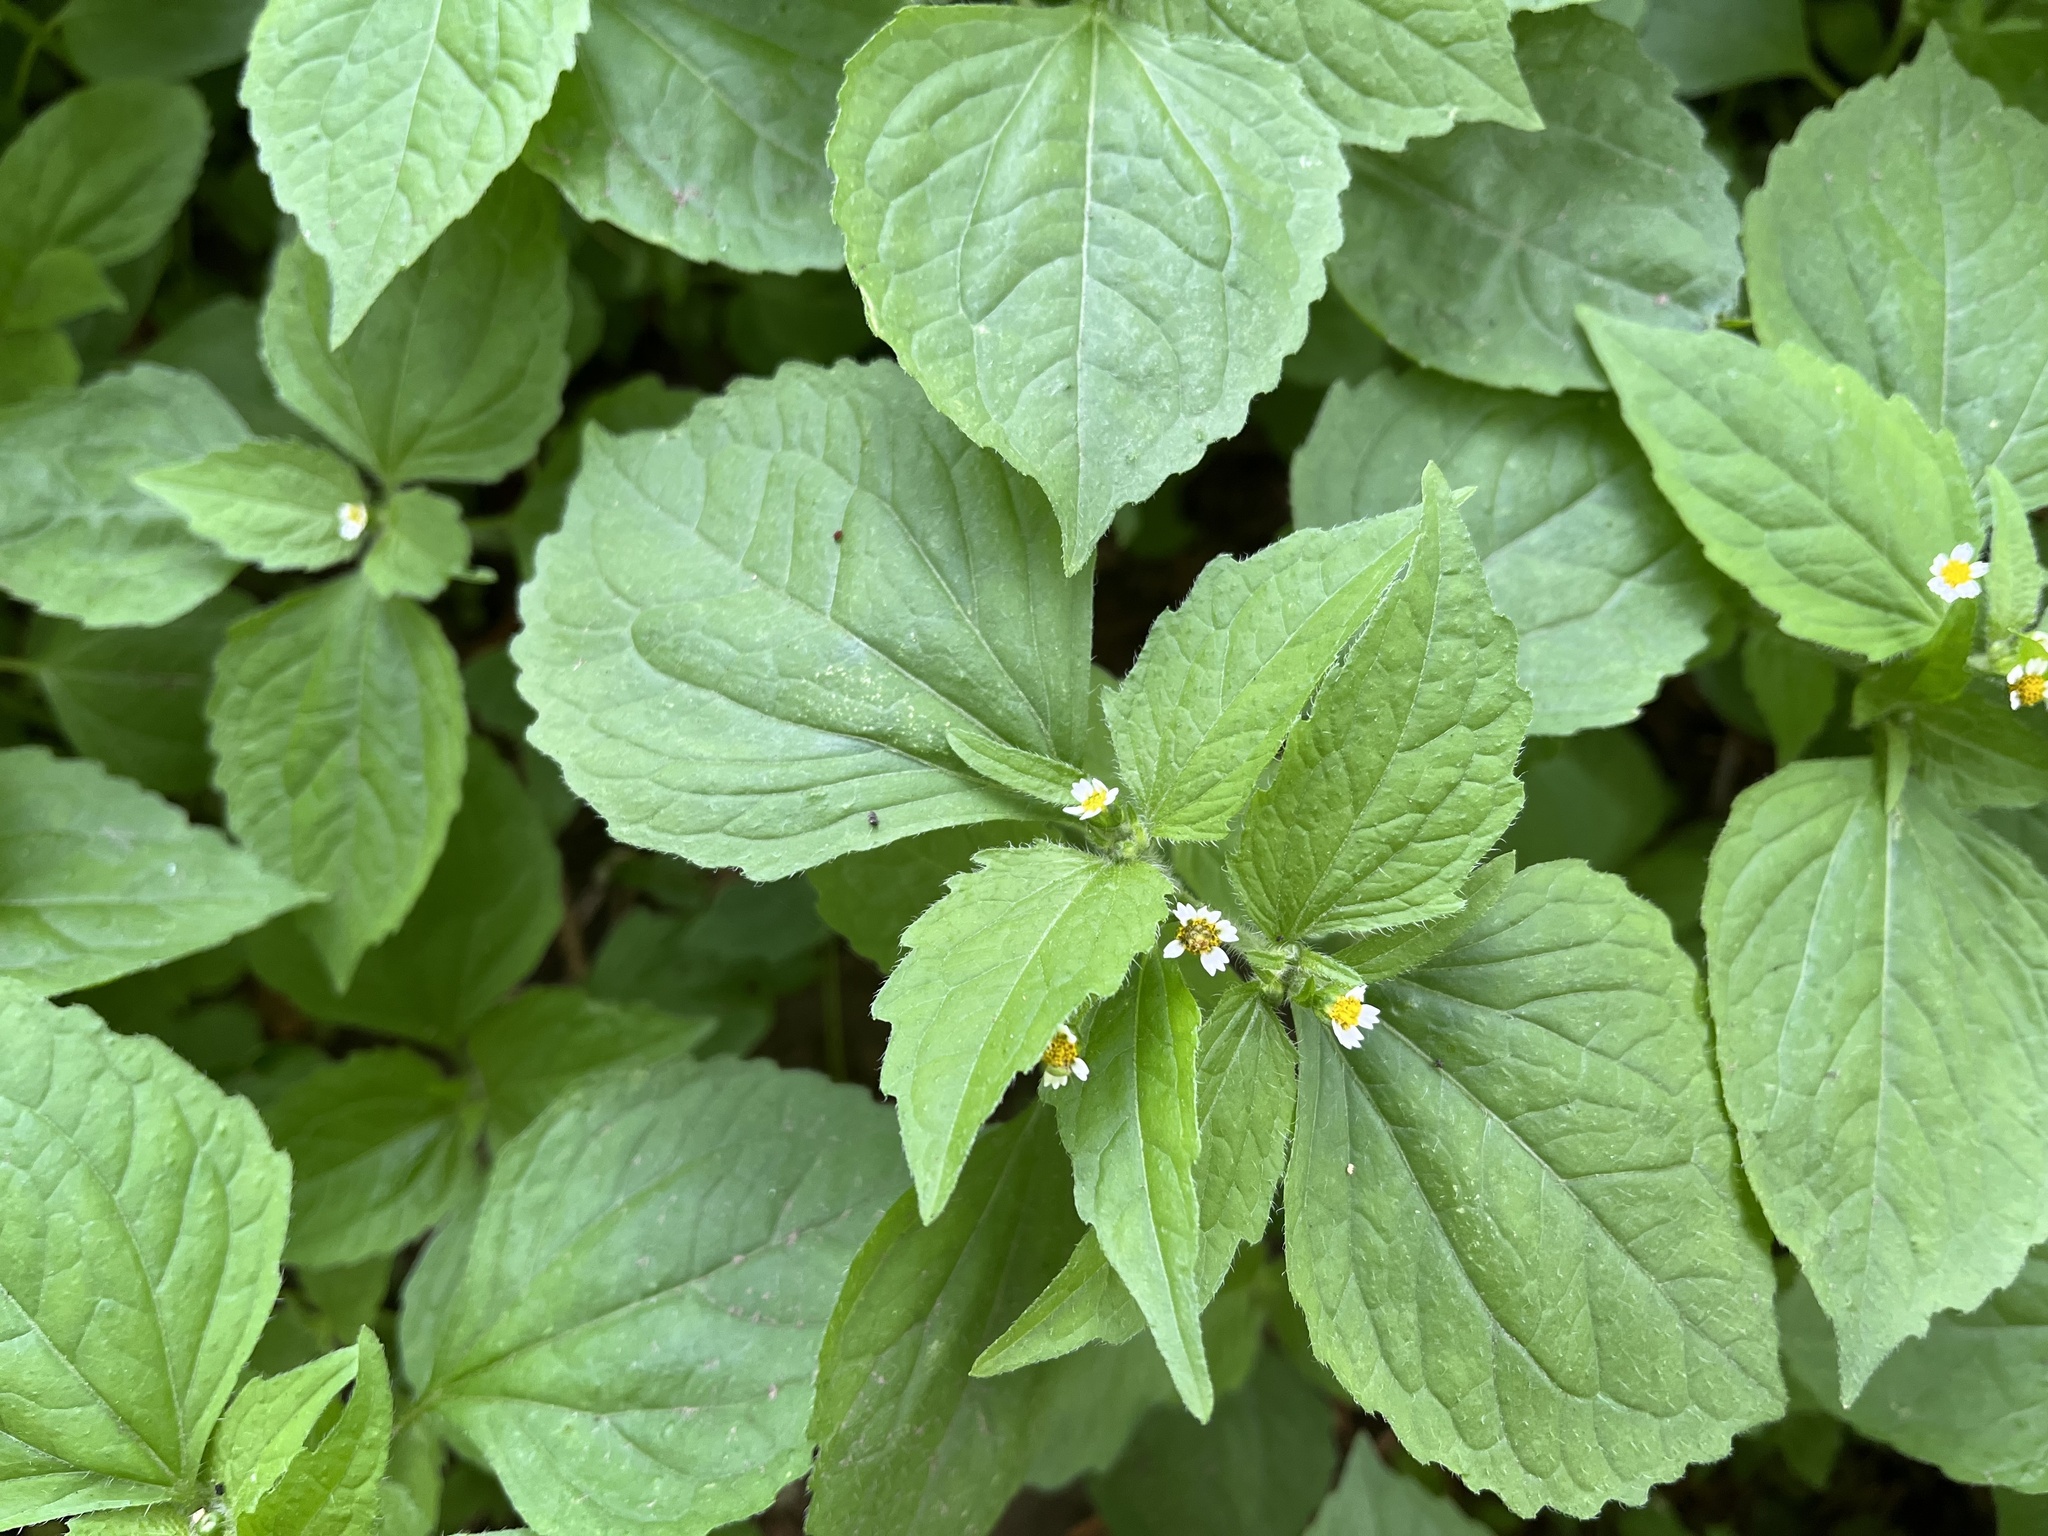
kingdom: Plantae
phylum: Tracheophyta
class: Magnoliopsida
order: Asterales
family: Asteraceae
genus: Galinsoga
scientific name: Galinsoga quadriradiata
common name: Shaggy soldier
